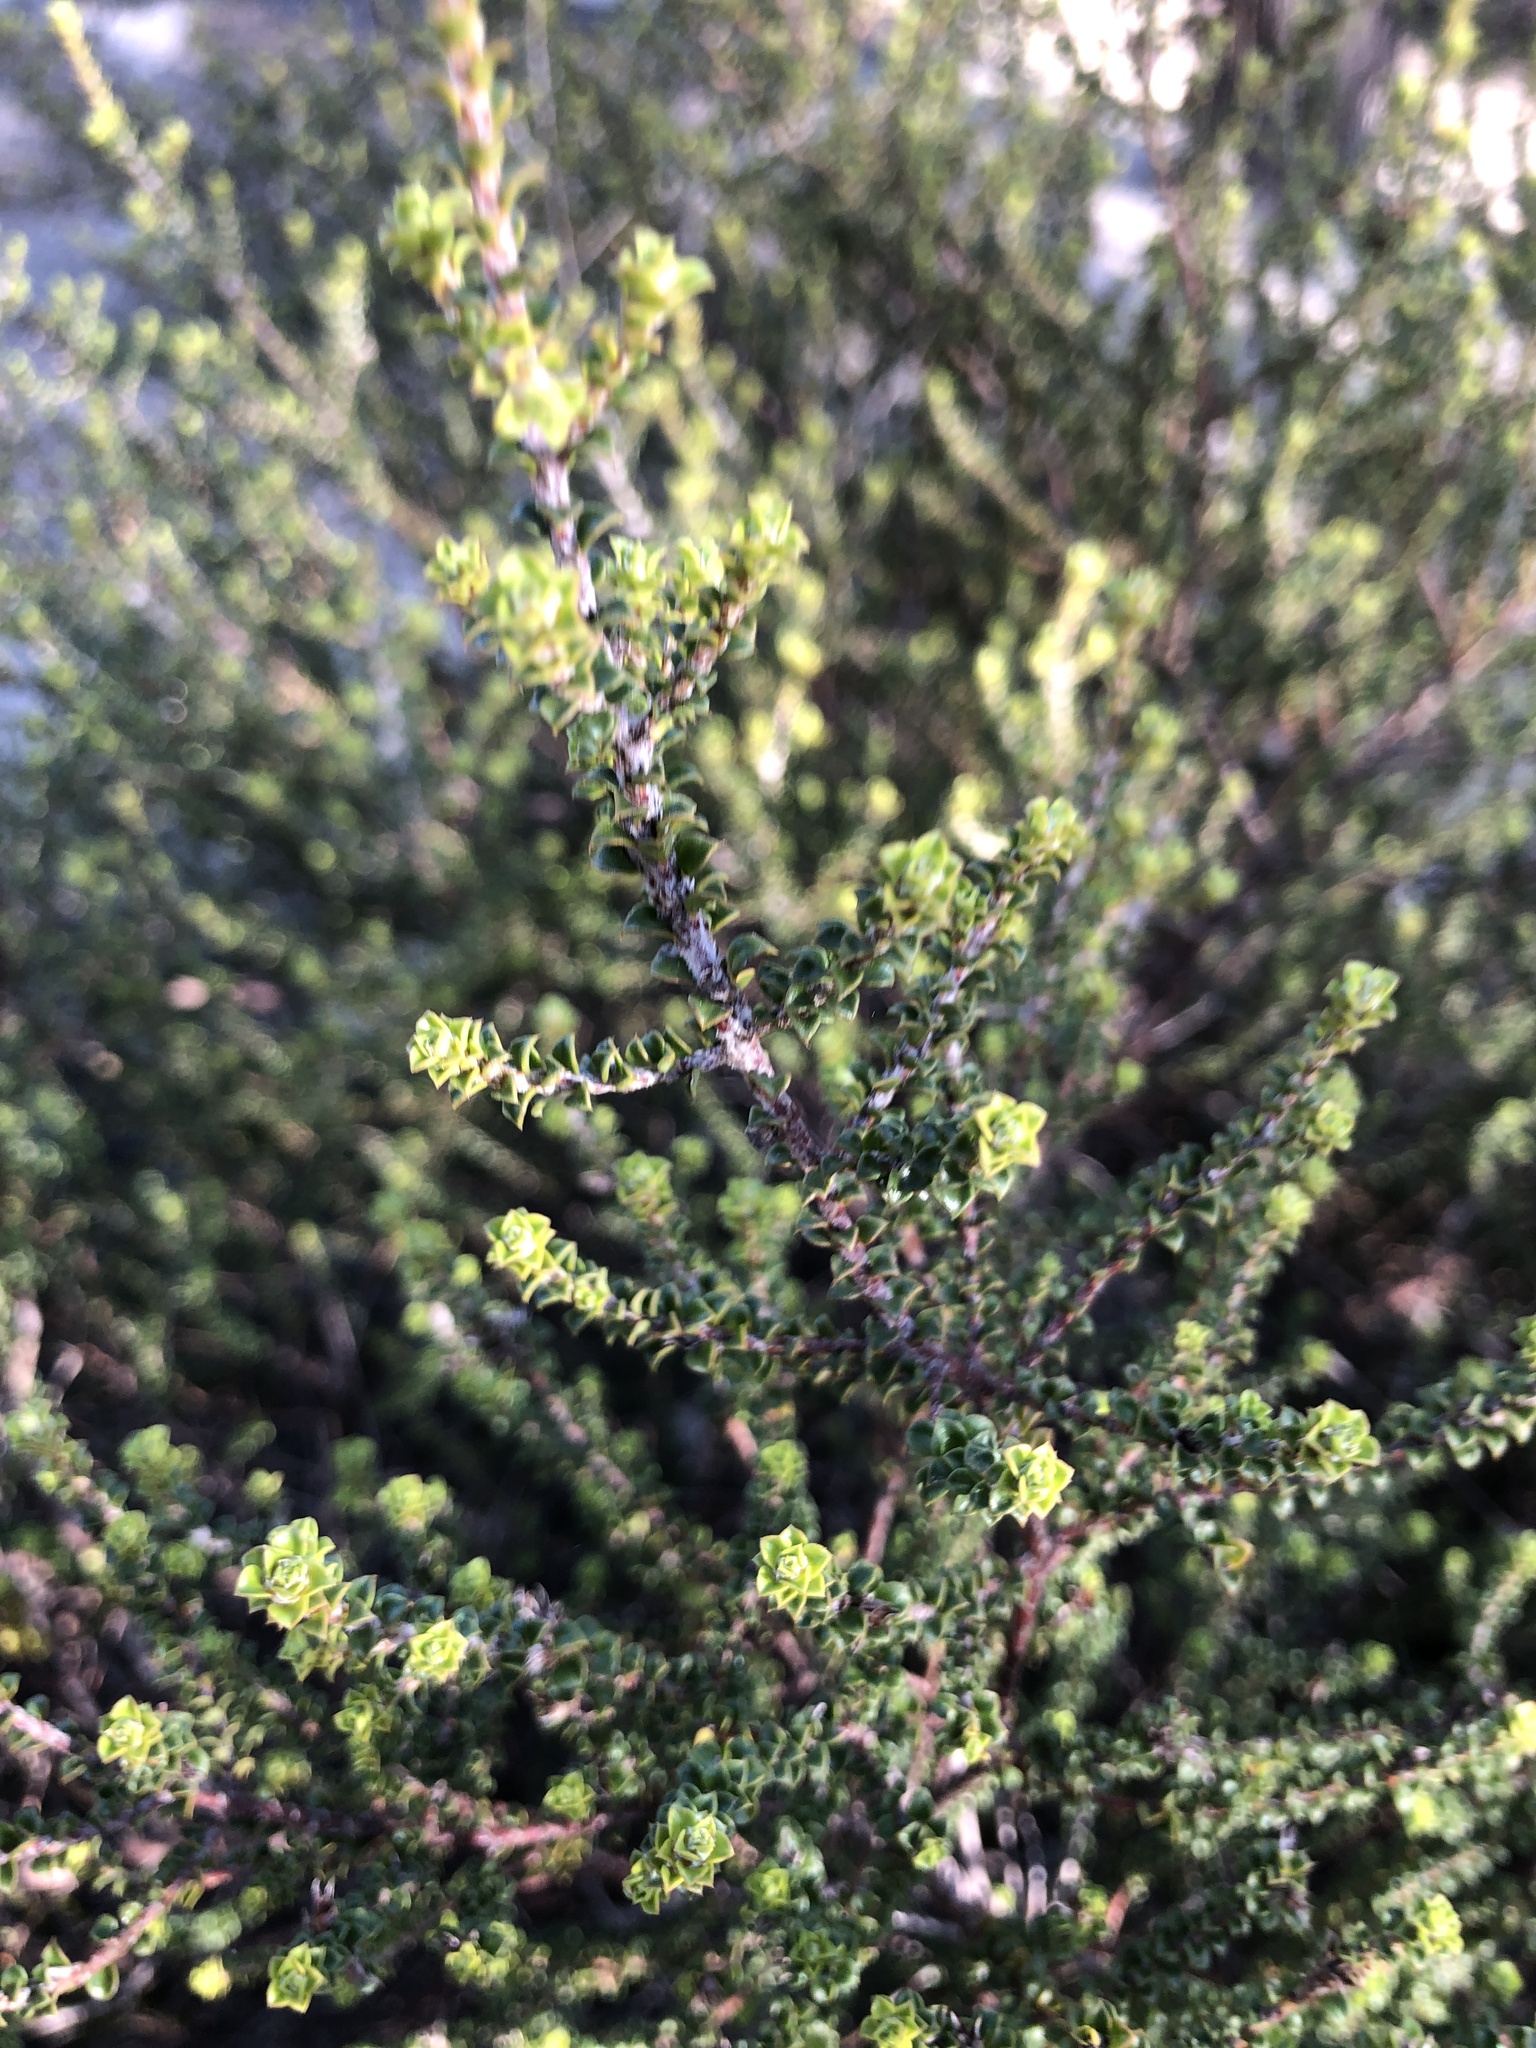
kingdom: Plantae
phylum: Tracheophyta
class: Magnoliopsida
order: Fabales
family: Fabaceae
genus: Pultenaea
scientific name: Pultenaea densifolia
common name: Dense-leaf bush-pea
